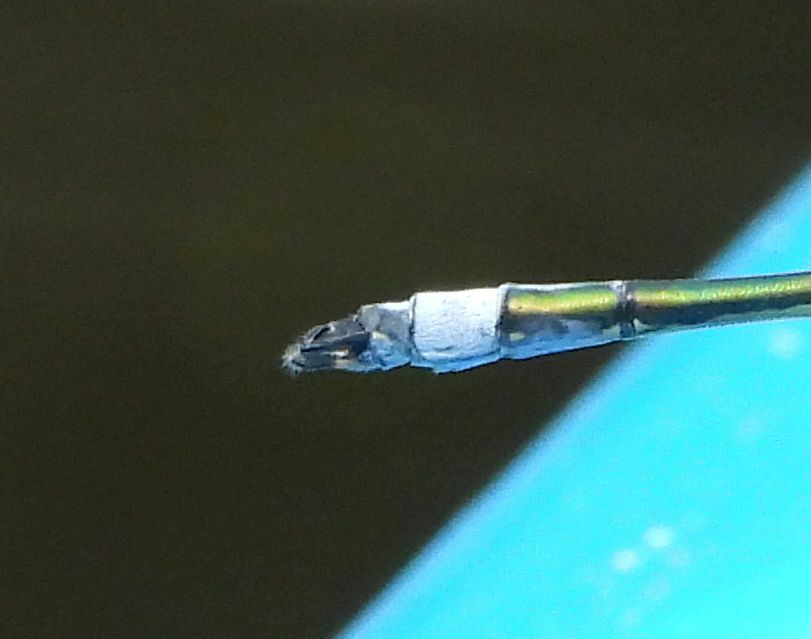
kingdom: Animalia
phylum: Arthropoda
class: Insecta
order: Odonata
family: Lestidae
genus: Lestes
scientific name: Lestes inaequalis
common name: Elegant spreadwing
